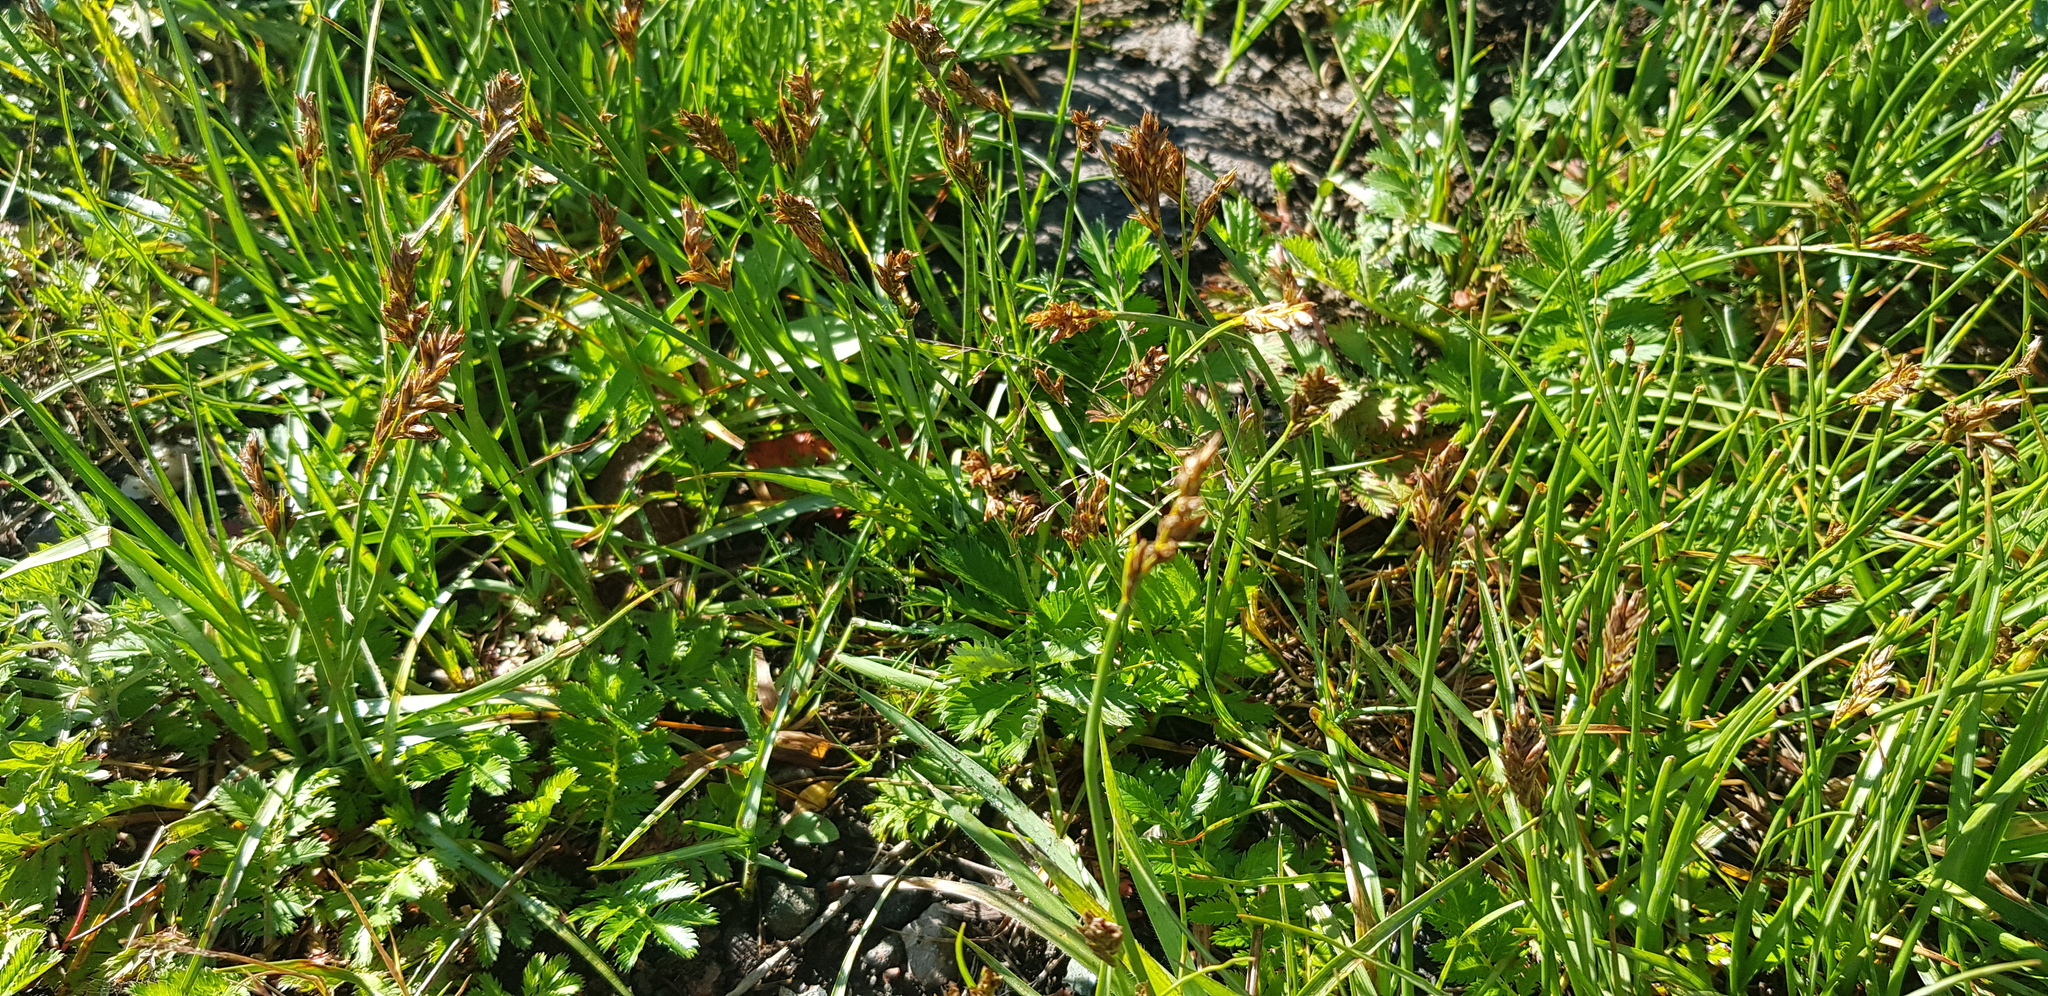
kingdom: Plantae
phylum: Tracheophyta
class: Liliopsida
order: Poales
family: Cyperaceae
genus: Carex
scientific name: Carex duriuscula
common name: Involute-leaved sedge
